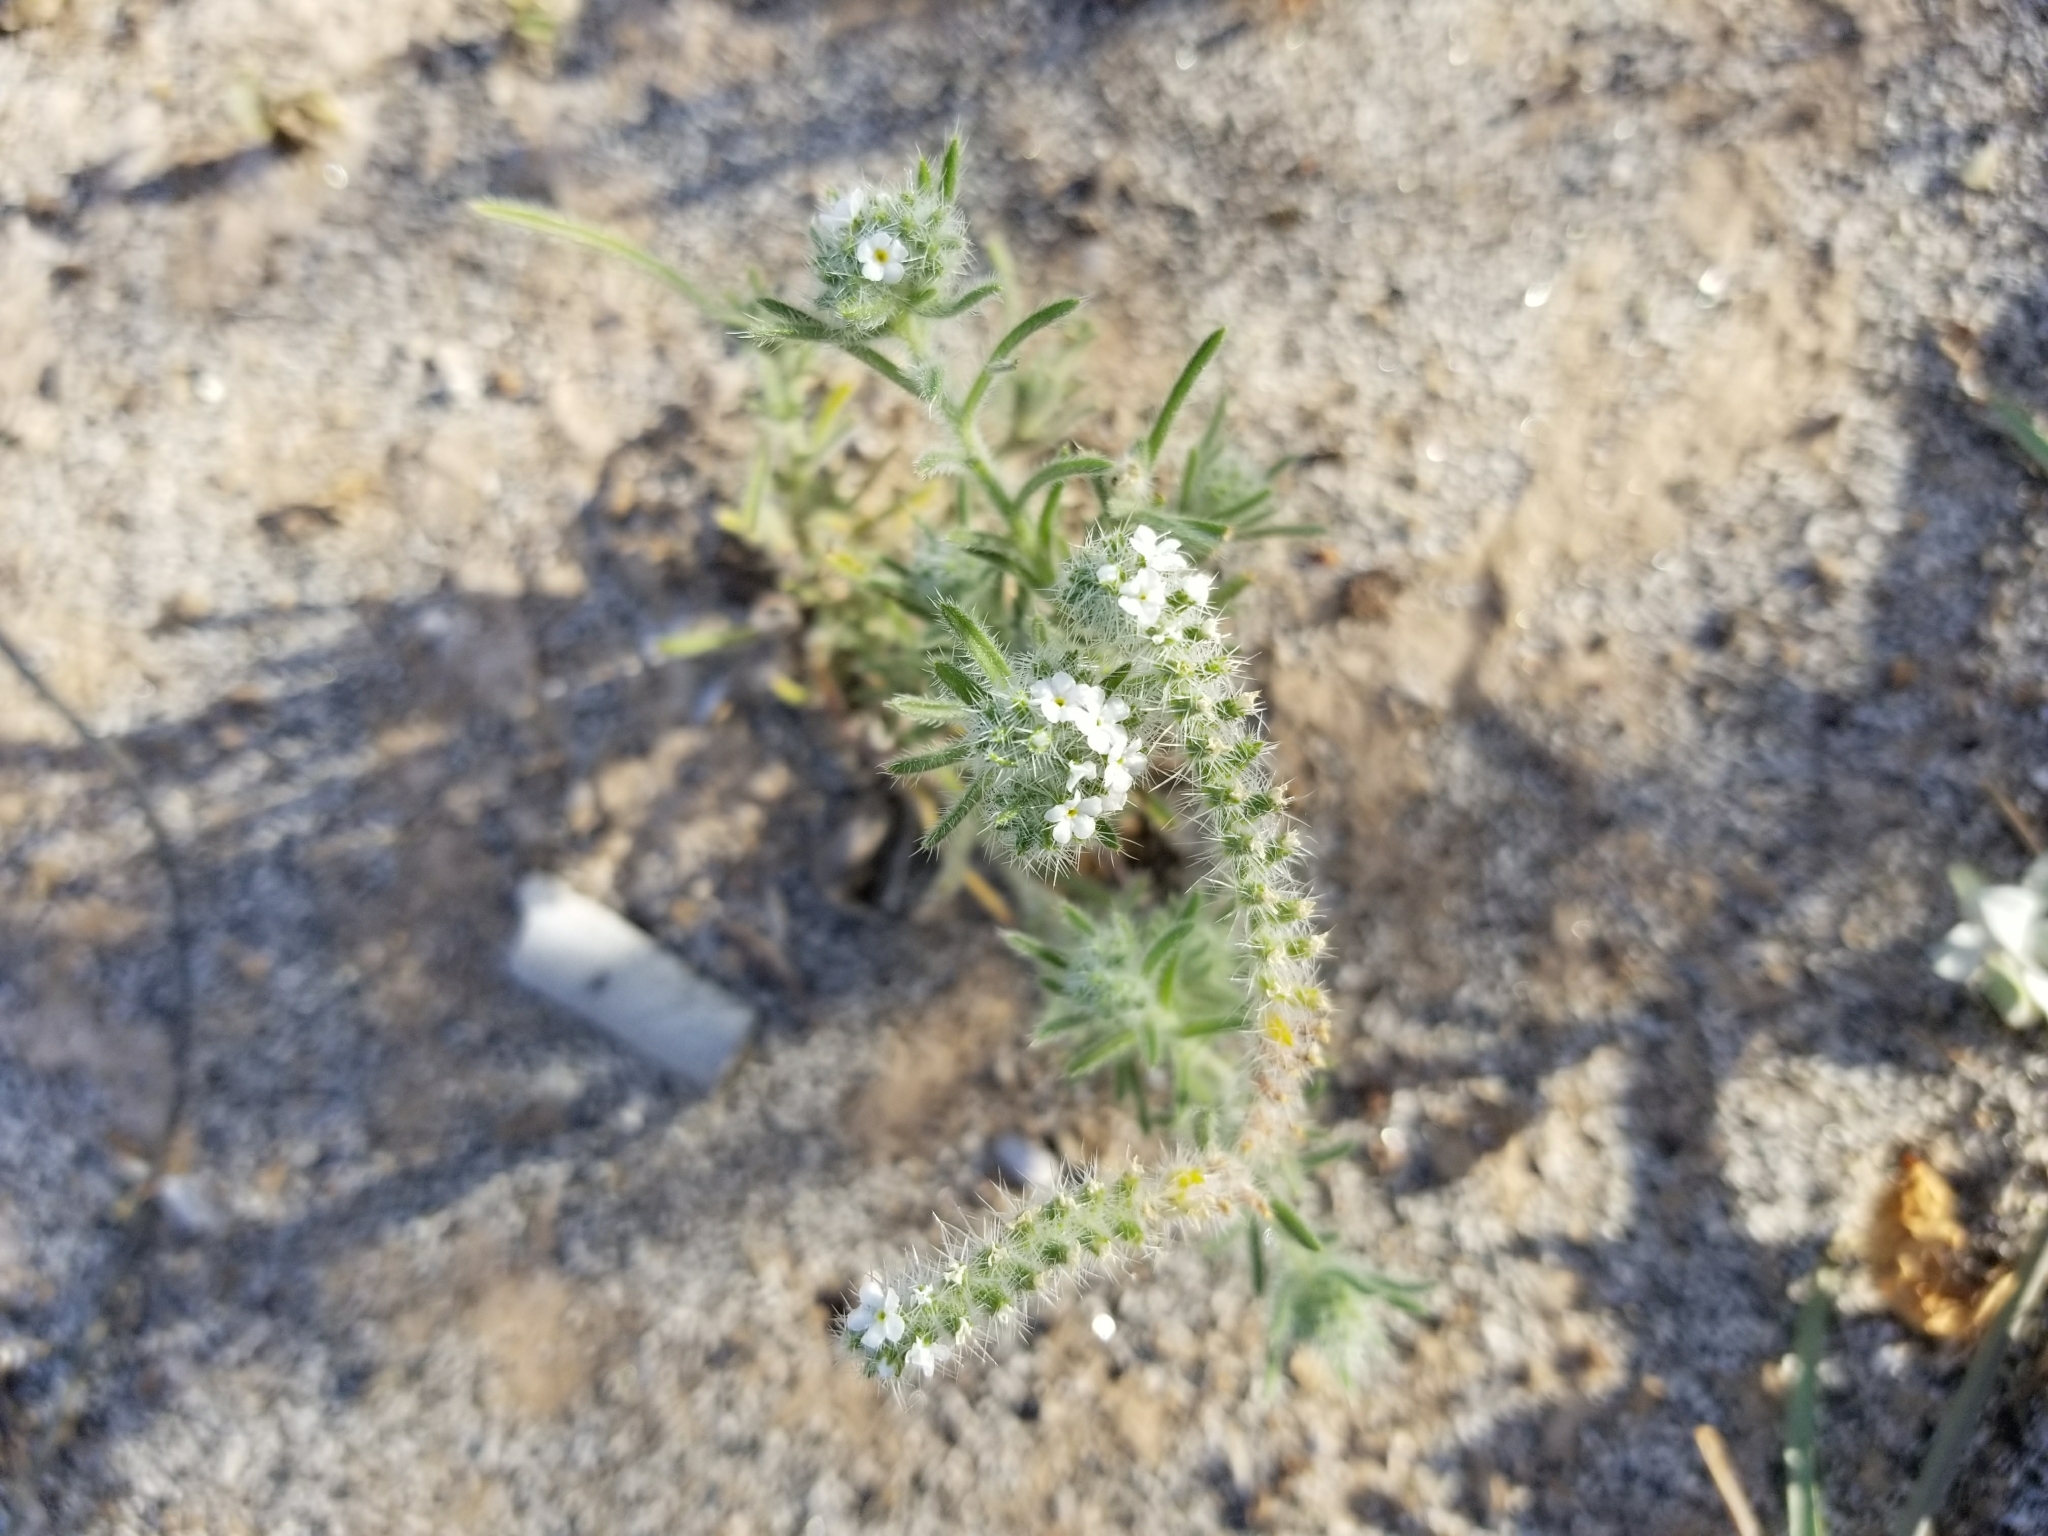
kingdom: Plantae
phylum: Tracheophyta
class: Magnoliopsida
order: Boraginales
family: Boraginaceae
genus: Johnstonella
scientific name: Johnstonella angustifolia
